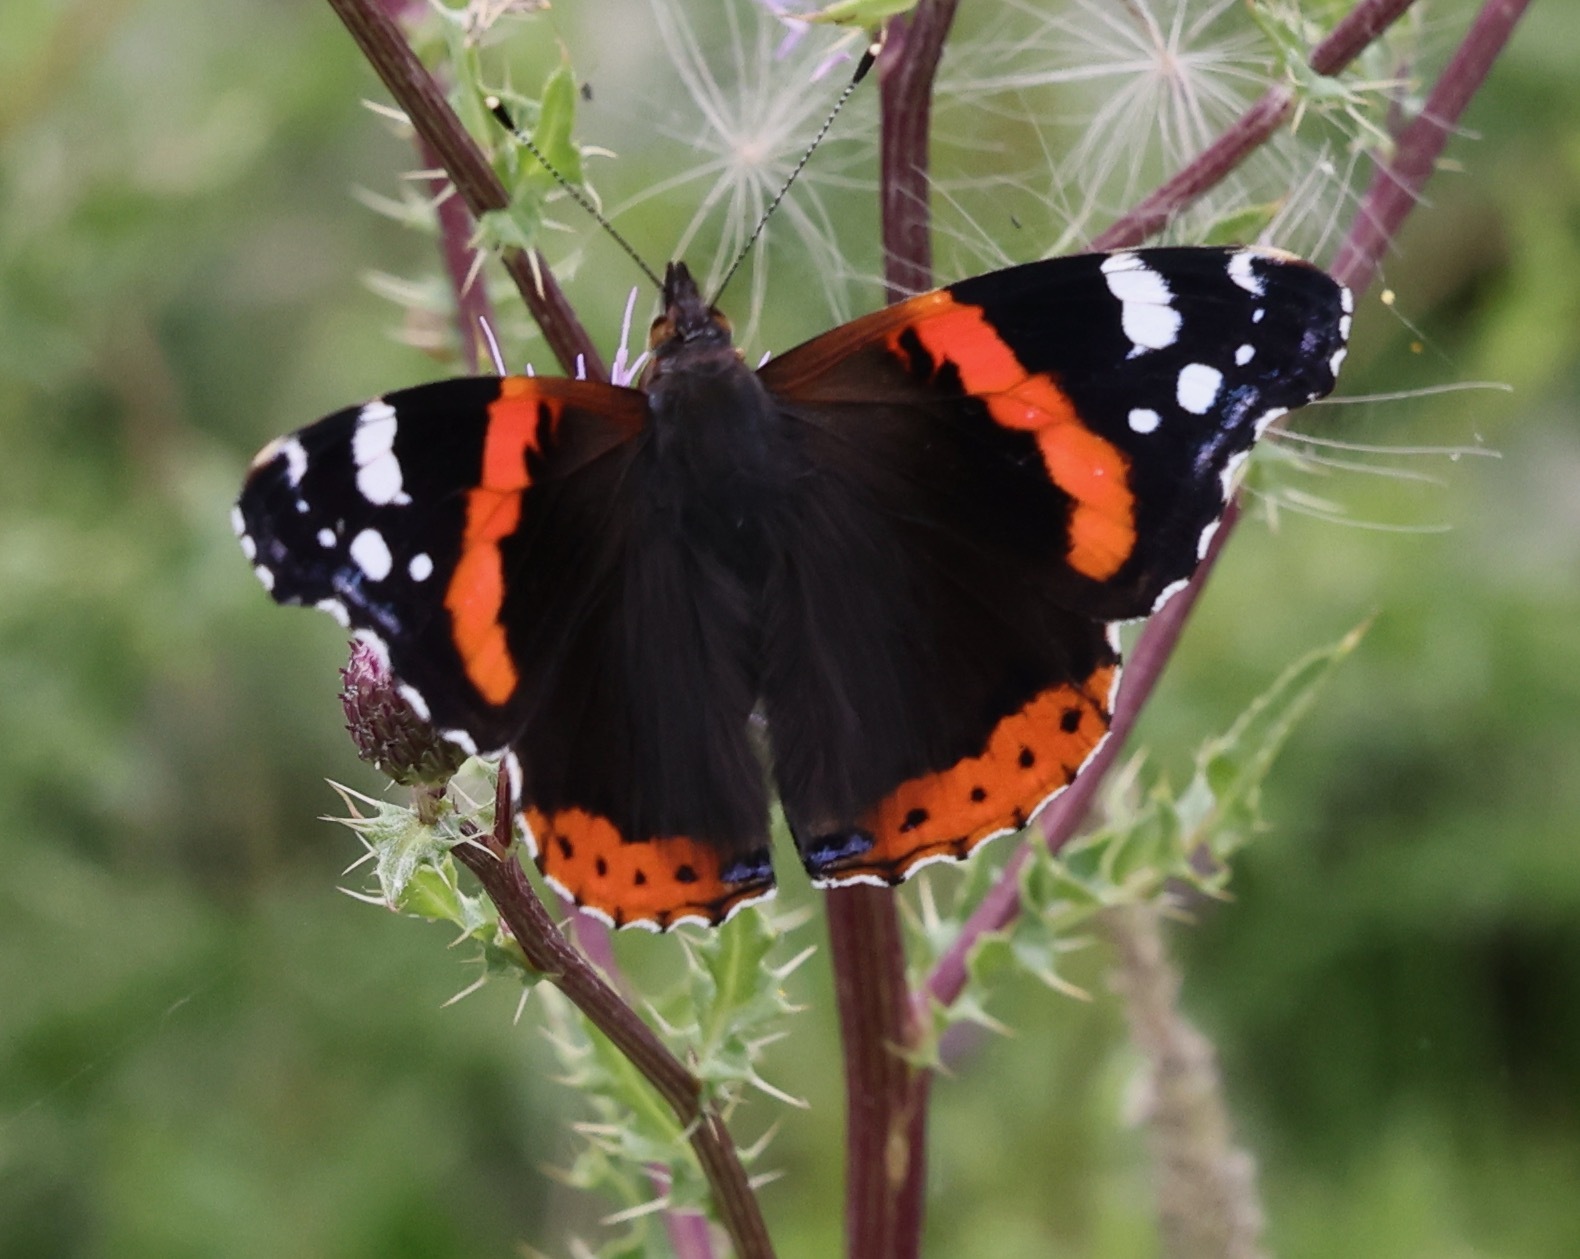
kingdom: Animalia
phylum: Arthropoda
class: Insecta
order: Lepidoptera
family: Nymphalidae
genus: Vanessa
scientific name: Vanessa atalanta
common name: Red admiral
